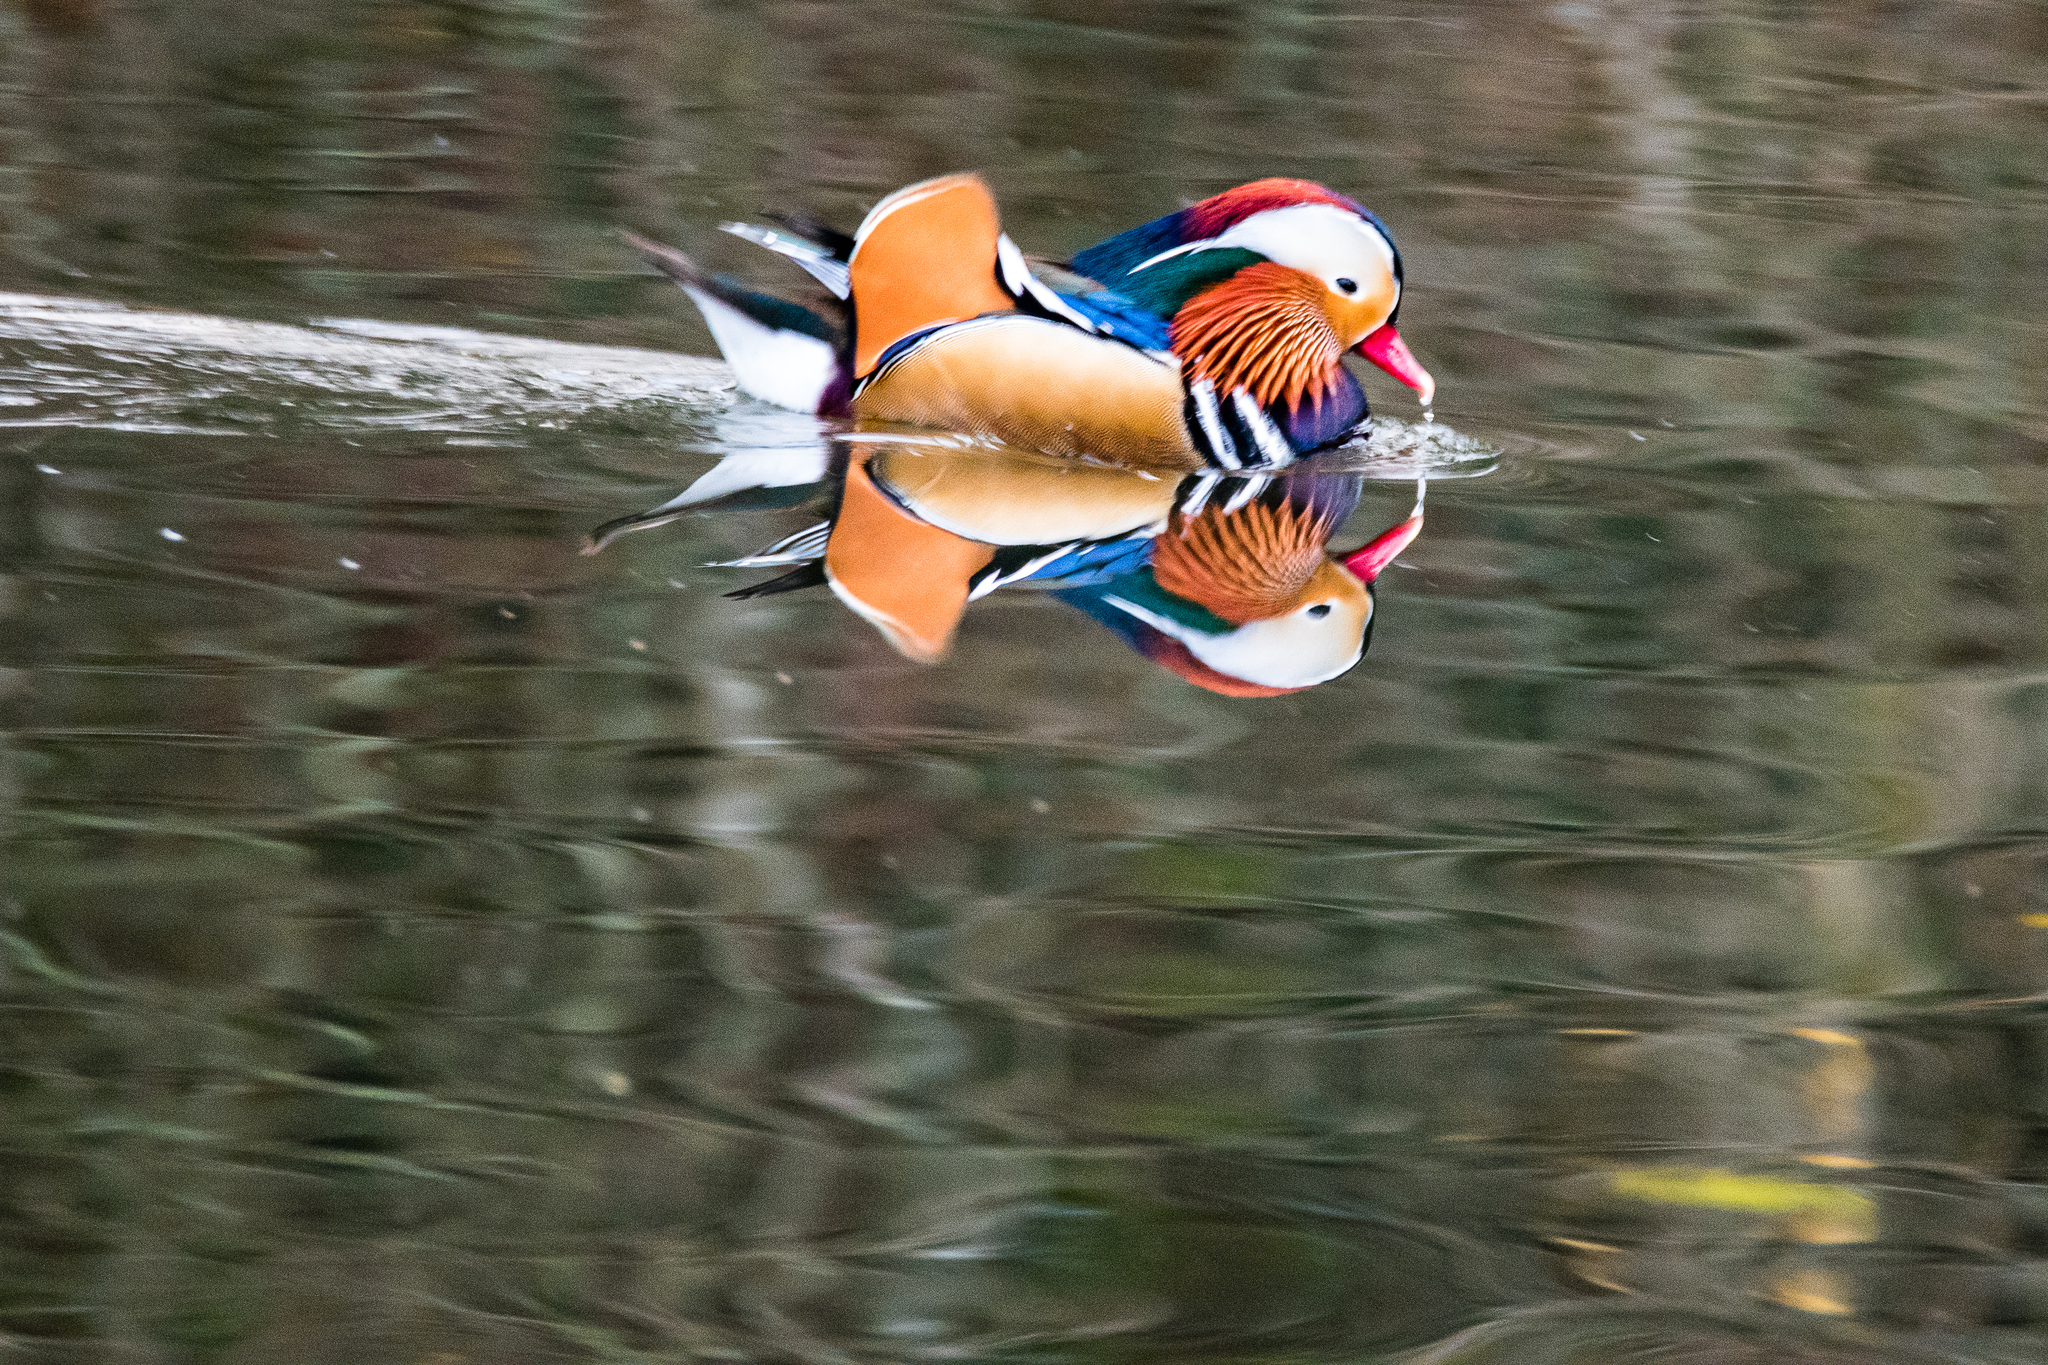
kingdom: Animalia
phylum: Chordata
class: Aves
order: Anseriformes
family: Anatidae
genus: Aix
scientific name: Aix galericulata
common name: Mandarin duck
